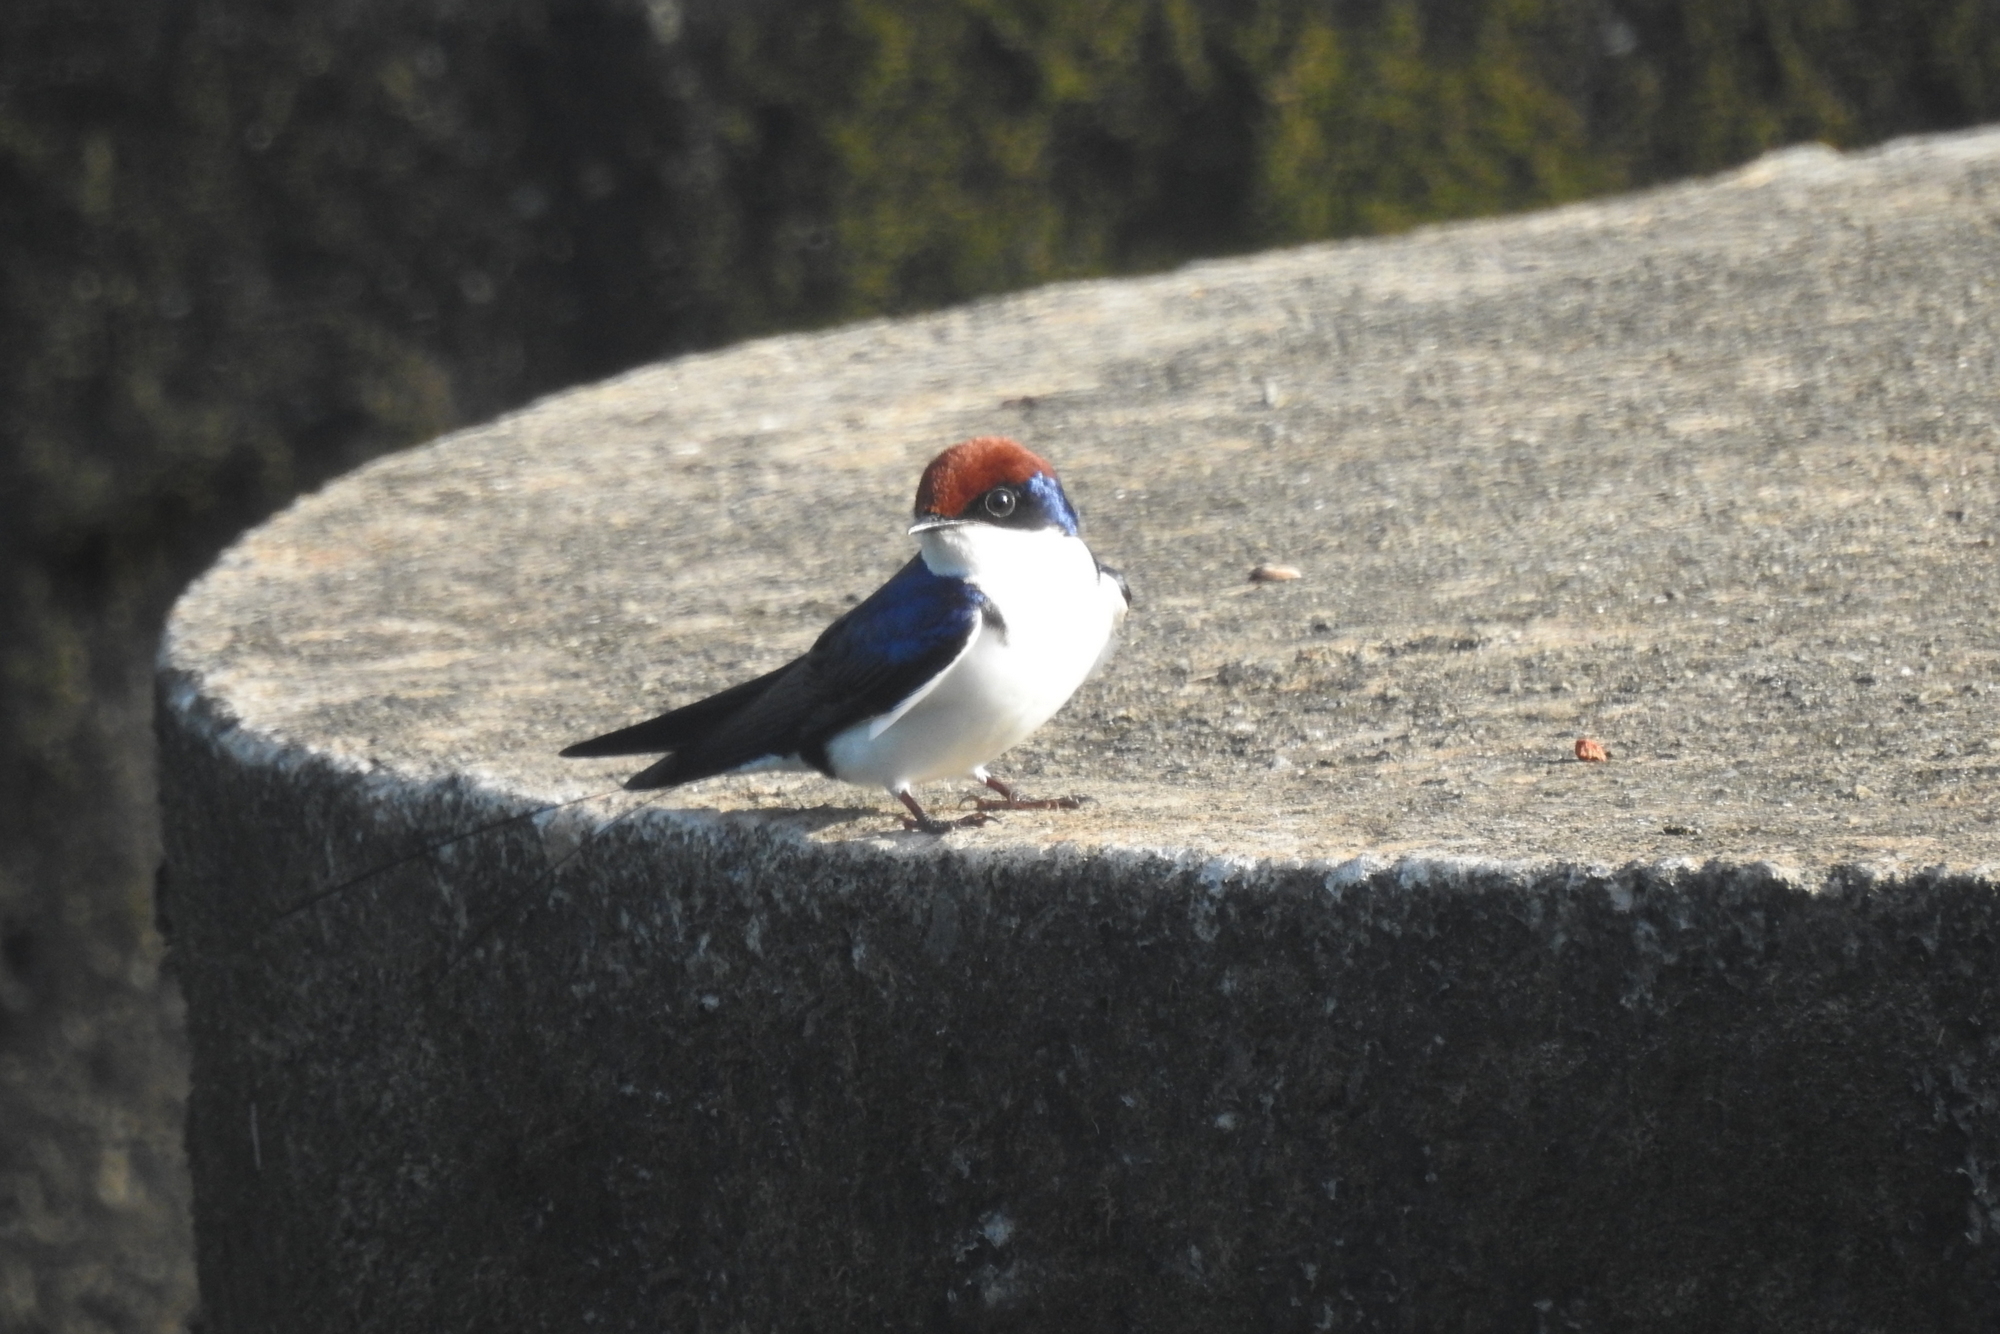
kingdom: Animalia
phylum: Chordata
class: Aves
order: Passeriformes
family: Hirundinidae
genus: Hirundo
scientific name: Hirundo smithii
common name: Wire-tailed swallow
